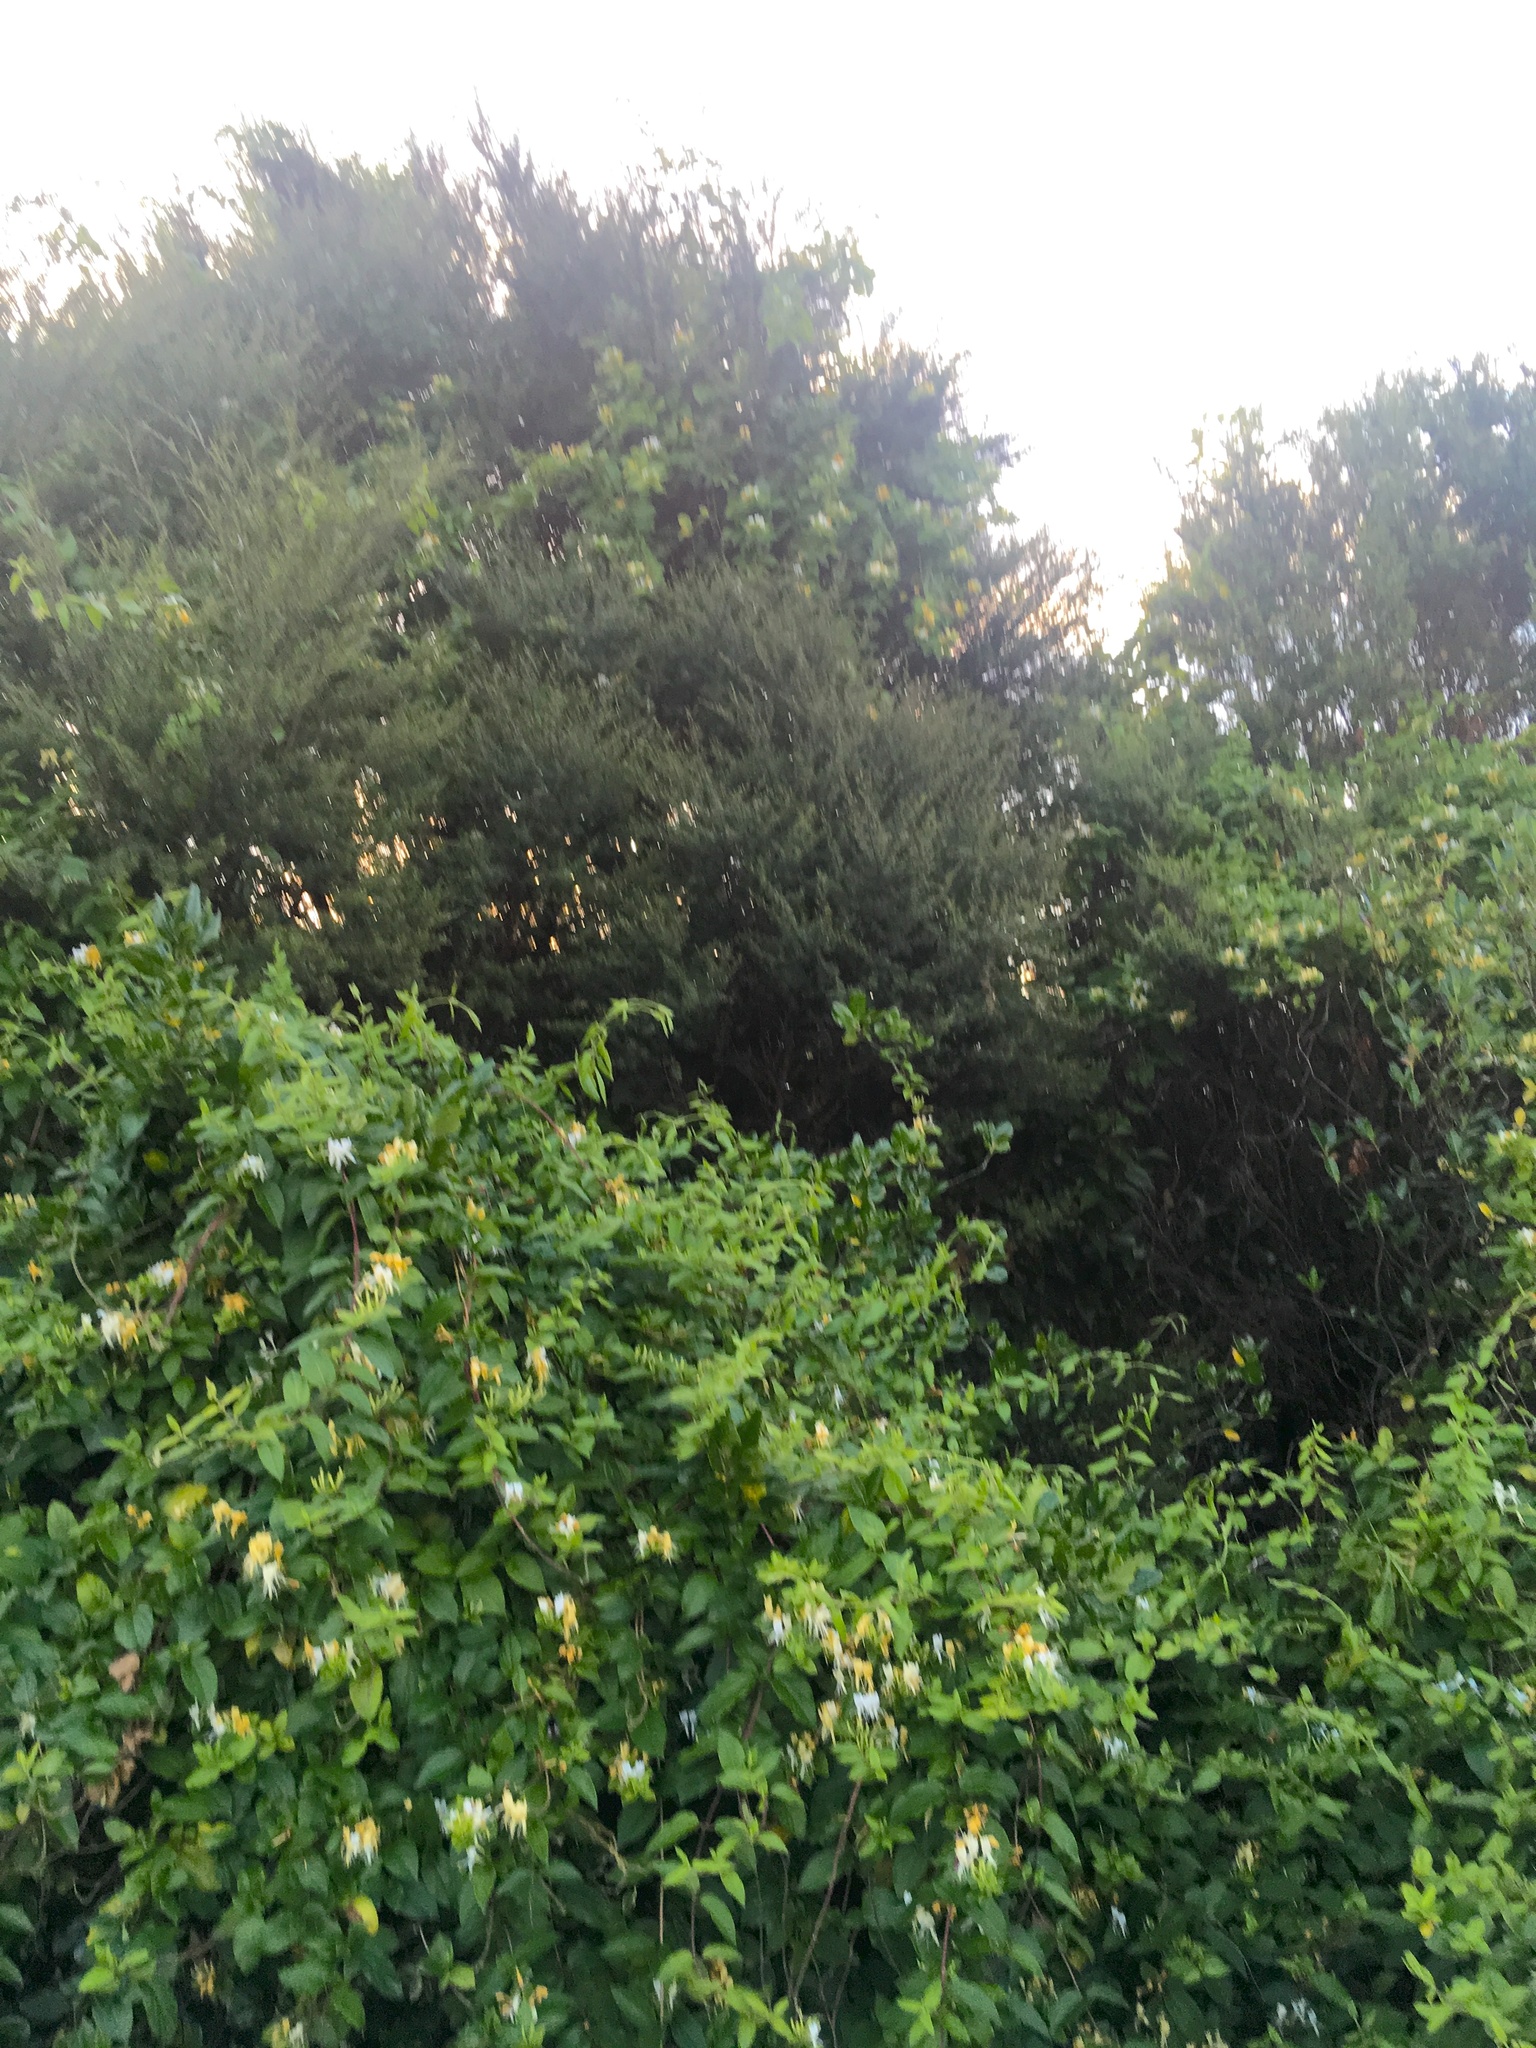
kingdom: Plantae
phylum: Tracheophyta
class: Magnoliopsida
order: Dipsacales
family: Caprifoliaceae
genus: Lonicera
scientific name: Lonicera japonica
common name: Japanese honeysuckle
